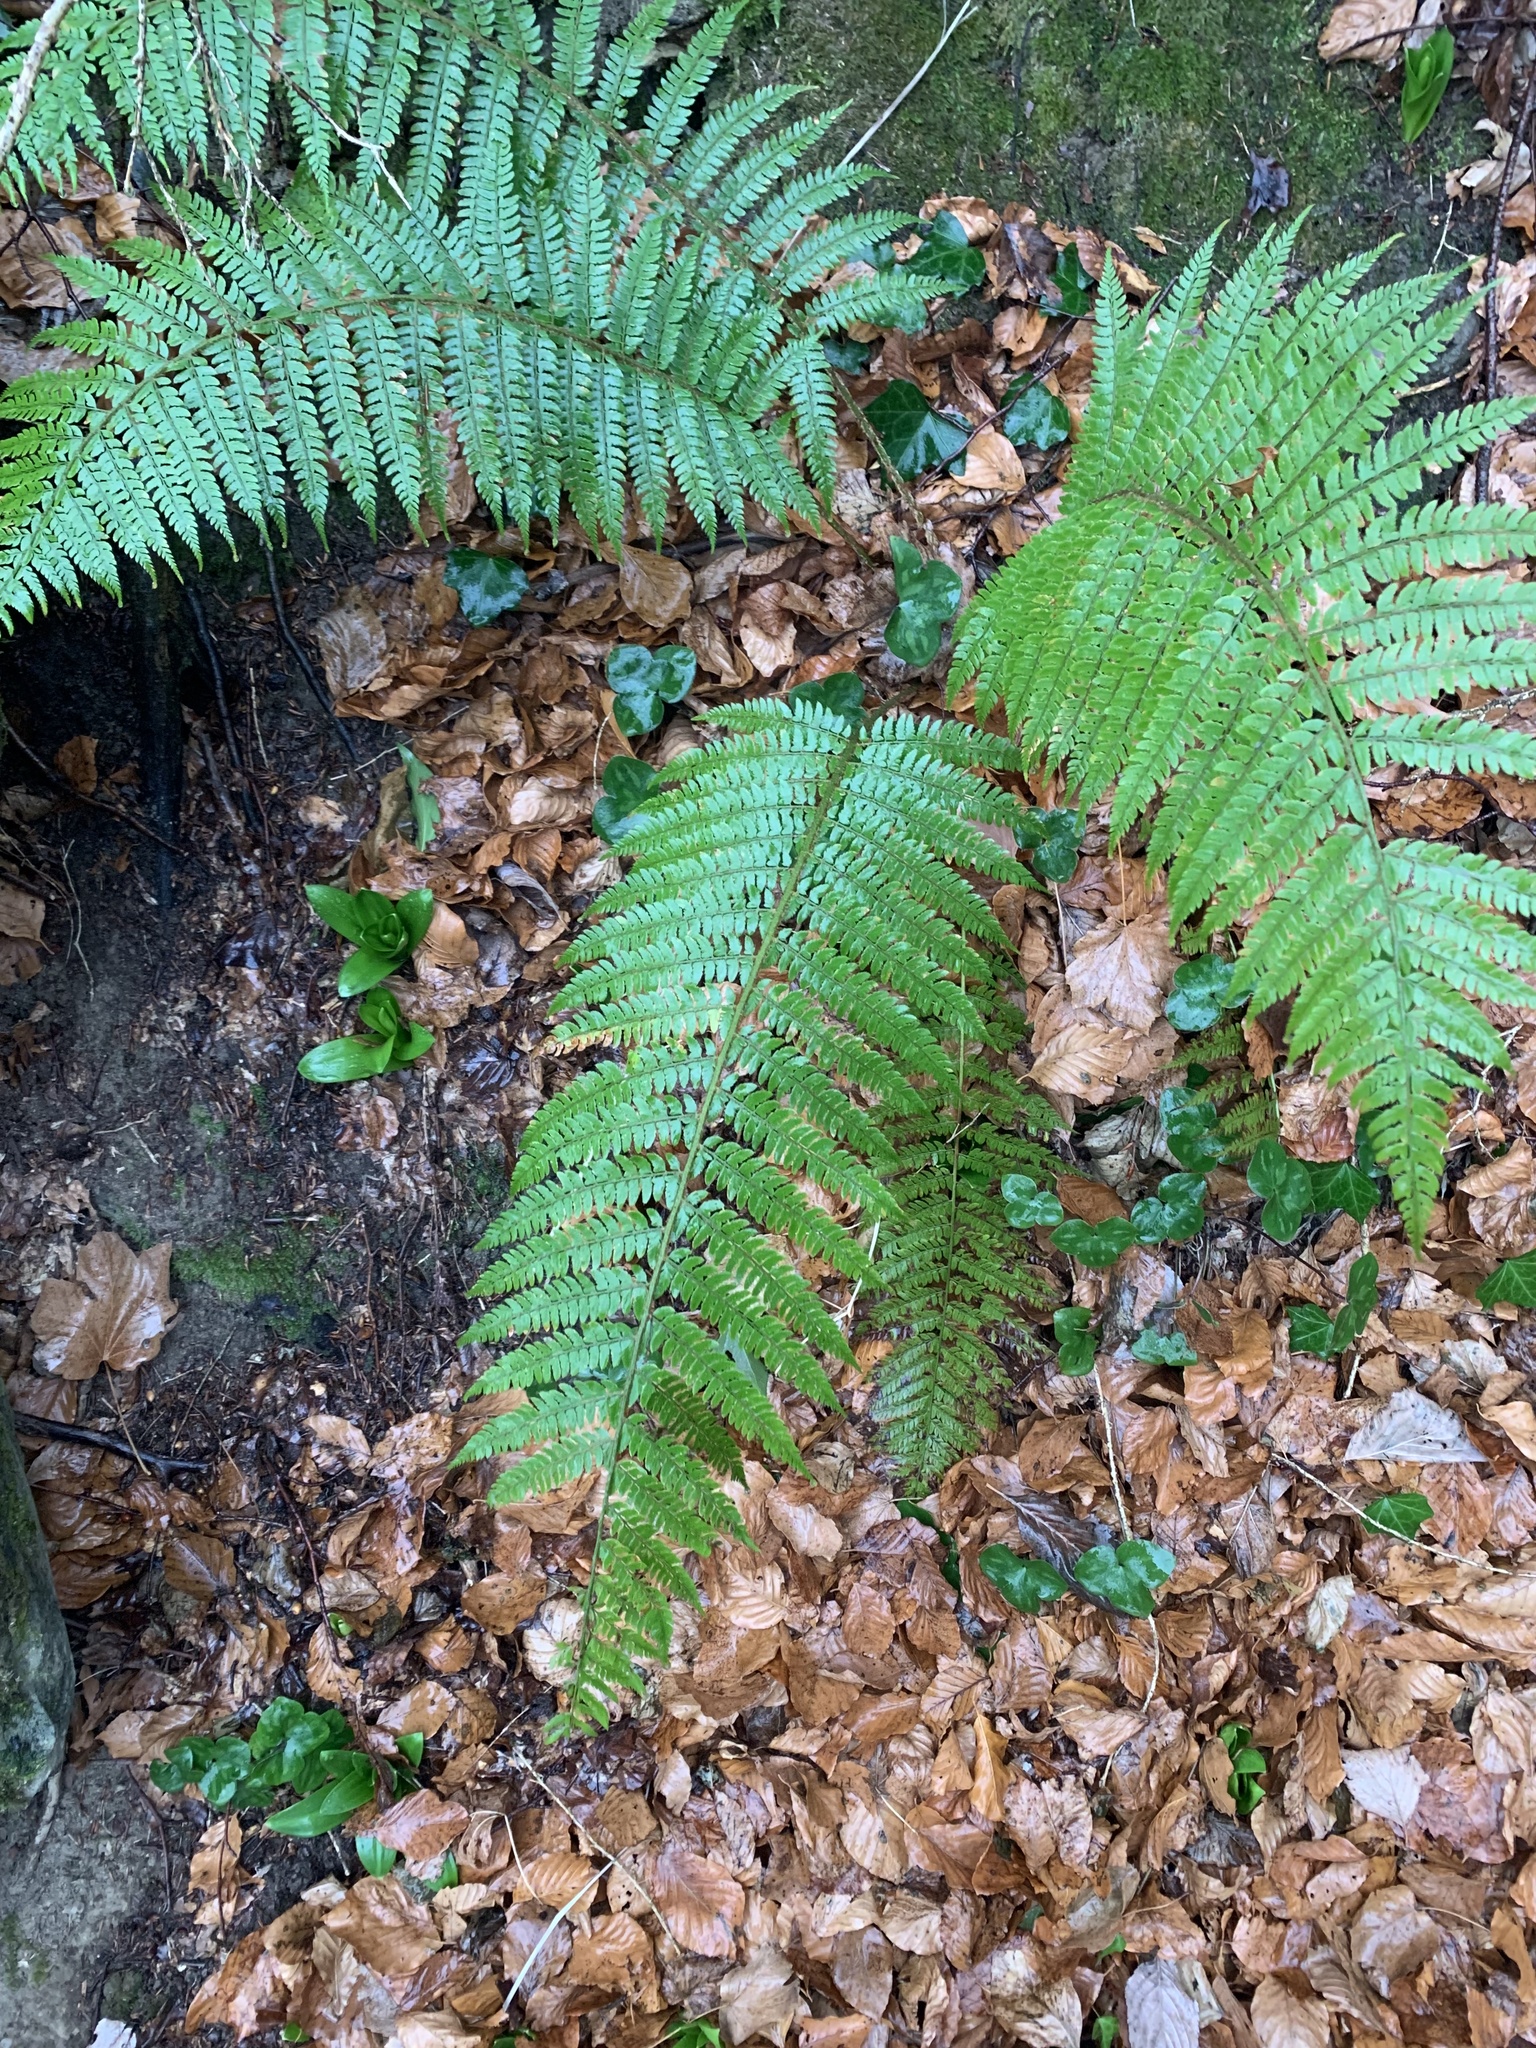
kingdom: Plantae
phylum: Tracheophyta
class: Polypodiopsida
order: Polypodiales
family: Dryopteridaceae
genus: Polystichum
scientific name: Polystichum setiferum
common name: Soft shield-fern
